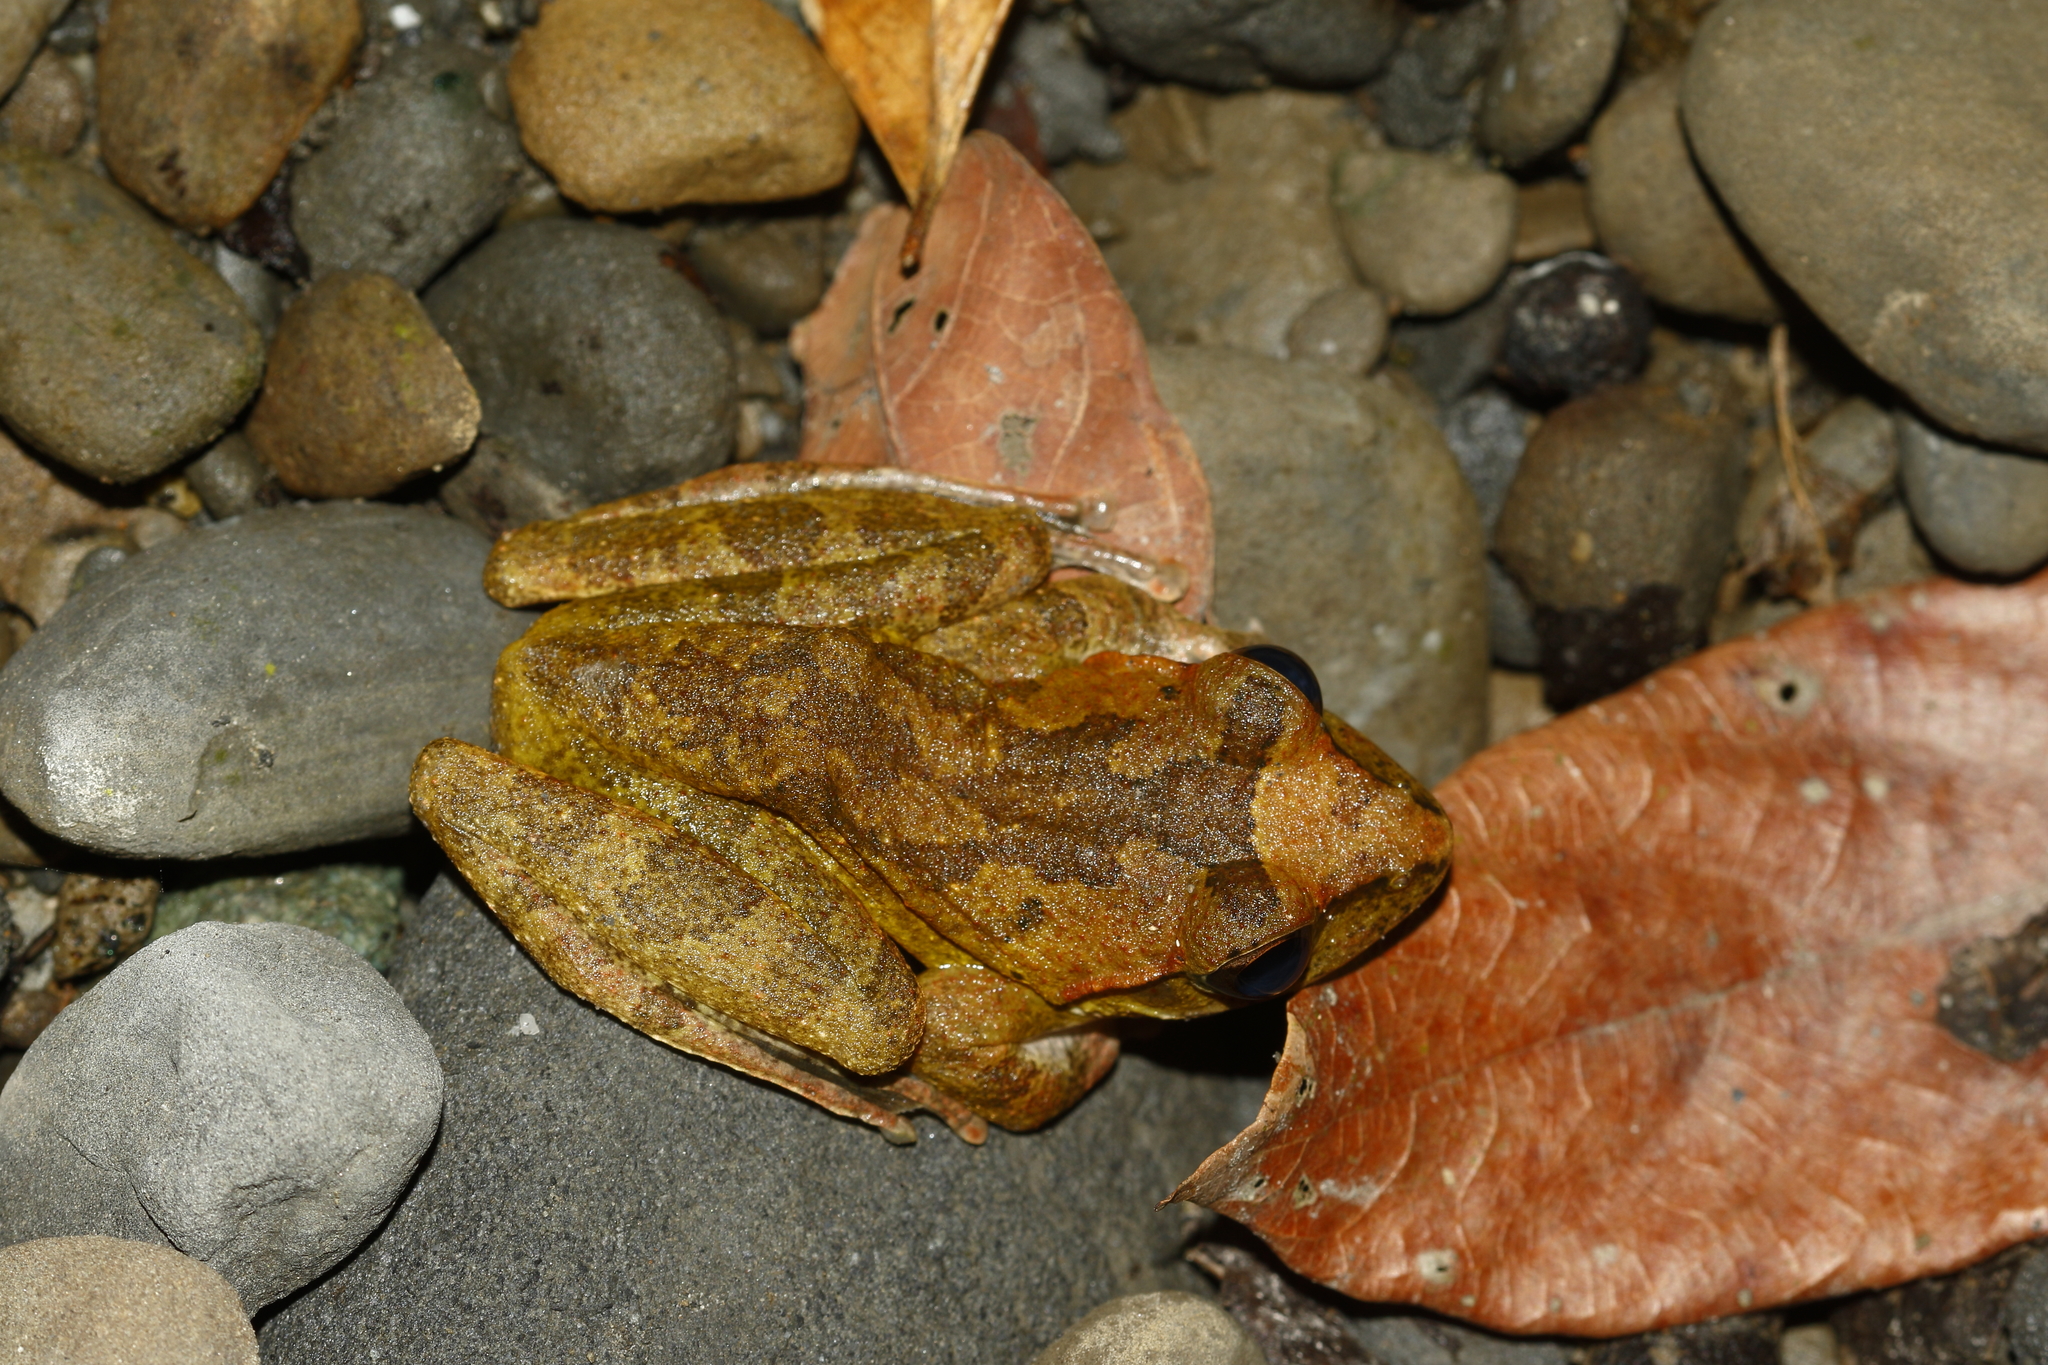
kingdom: Animalia
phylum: Chordata
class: Amphibia
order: Anura
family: Rhacophoridae
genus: Buergeria
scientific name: Buergeria robusta
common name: Brown treefrog
